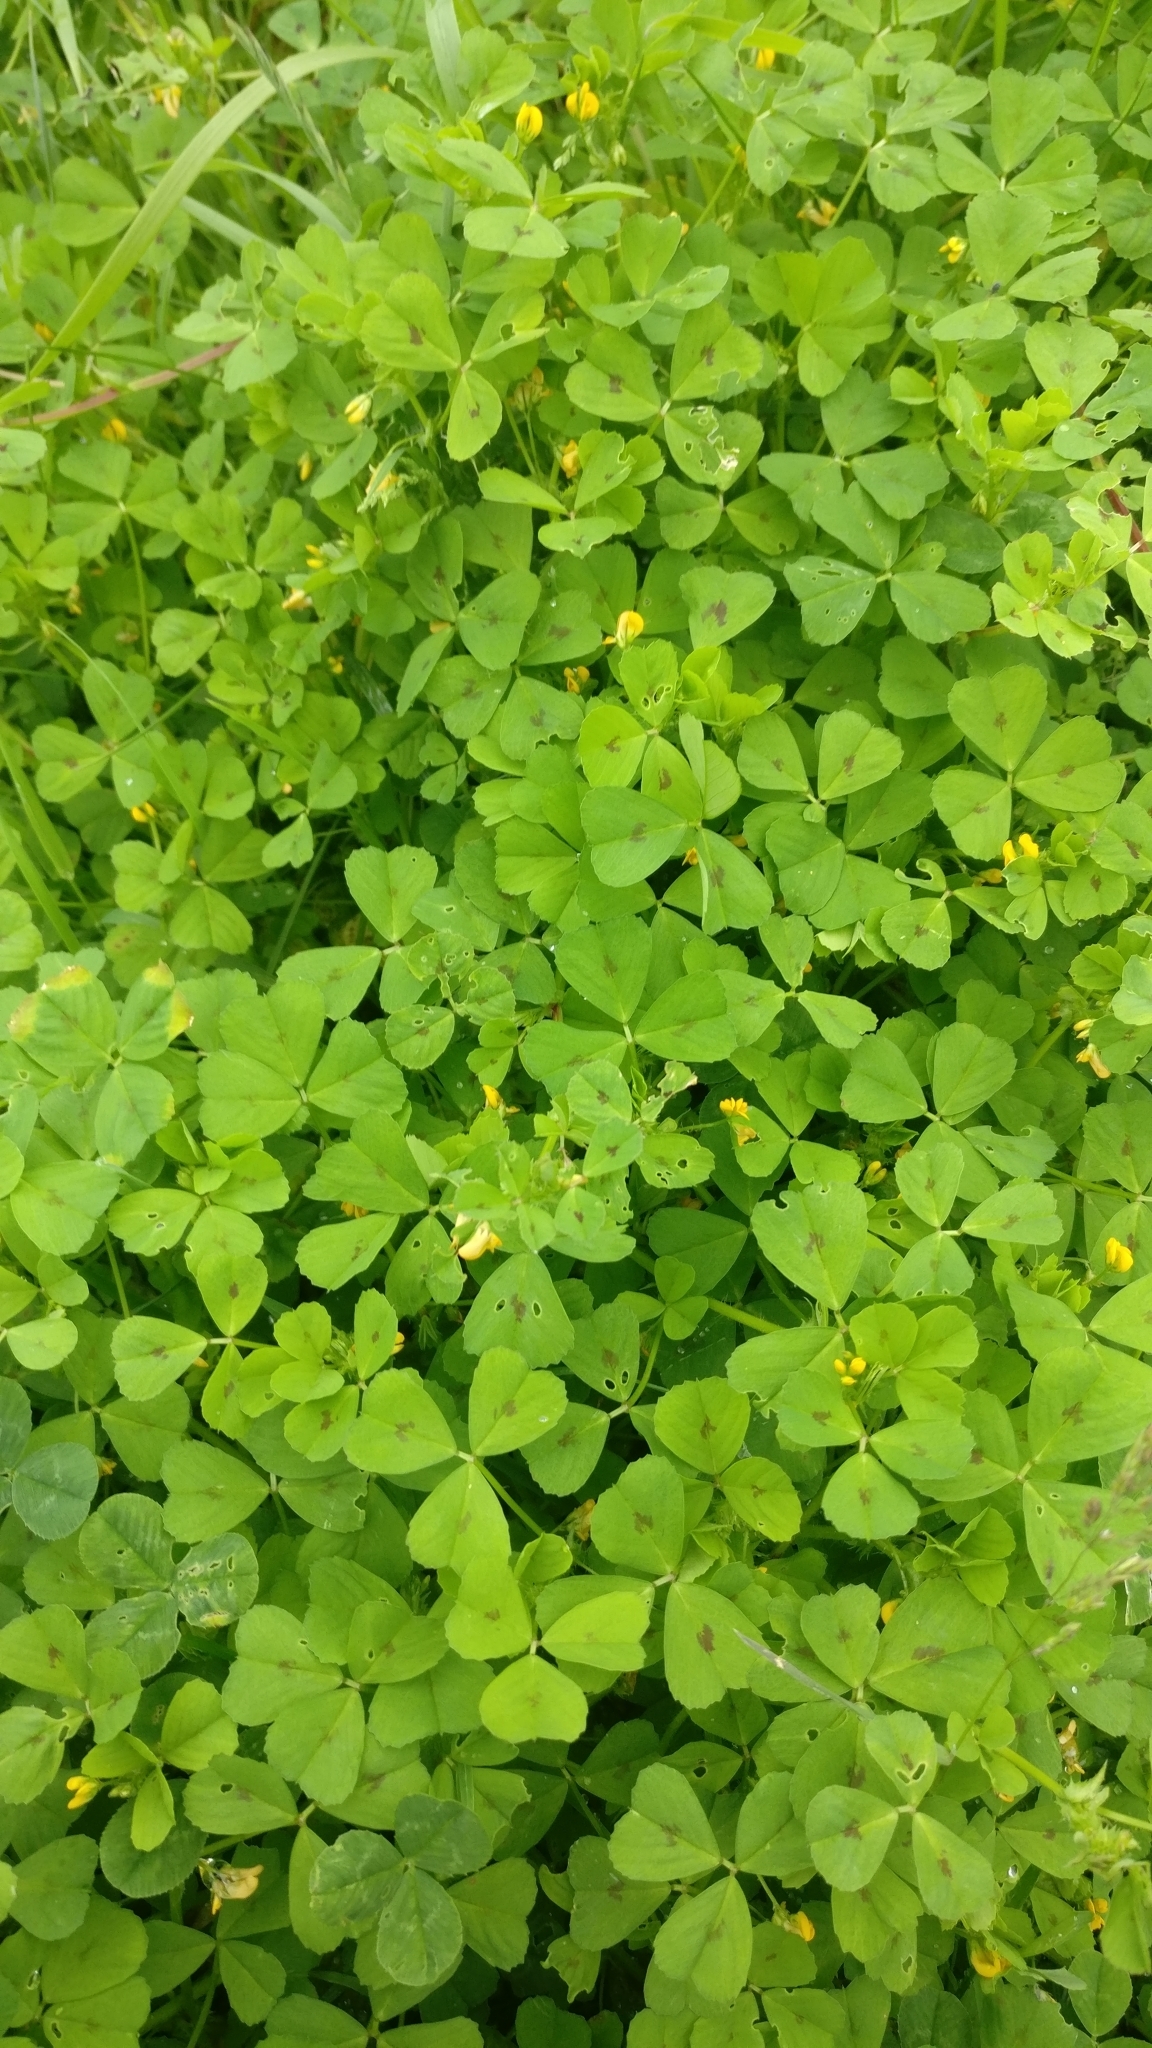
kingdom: Plantae
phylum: Tracheophyta
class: Magnoliopsida
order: Fabales
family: Fabaceae
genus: Medicago
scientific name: Medicago arabica
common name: Spotted medick
